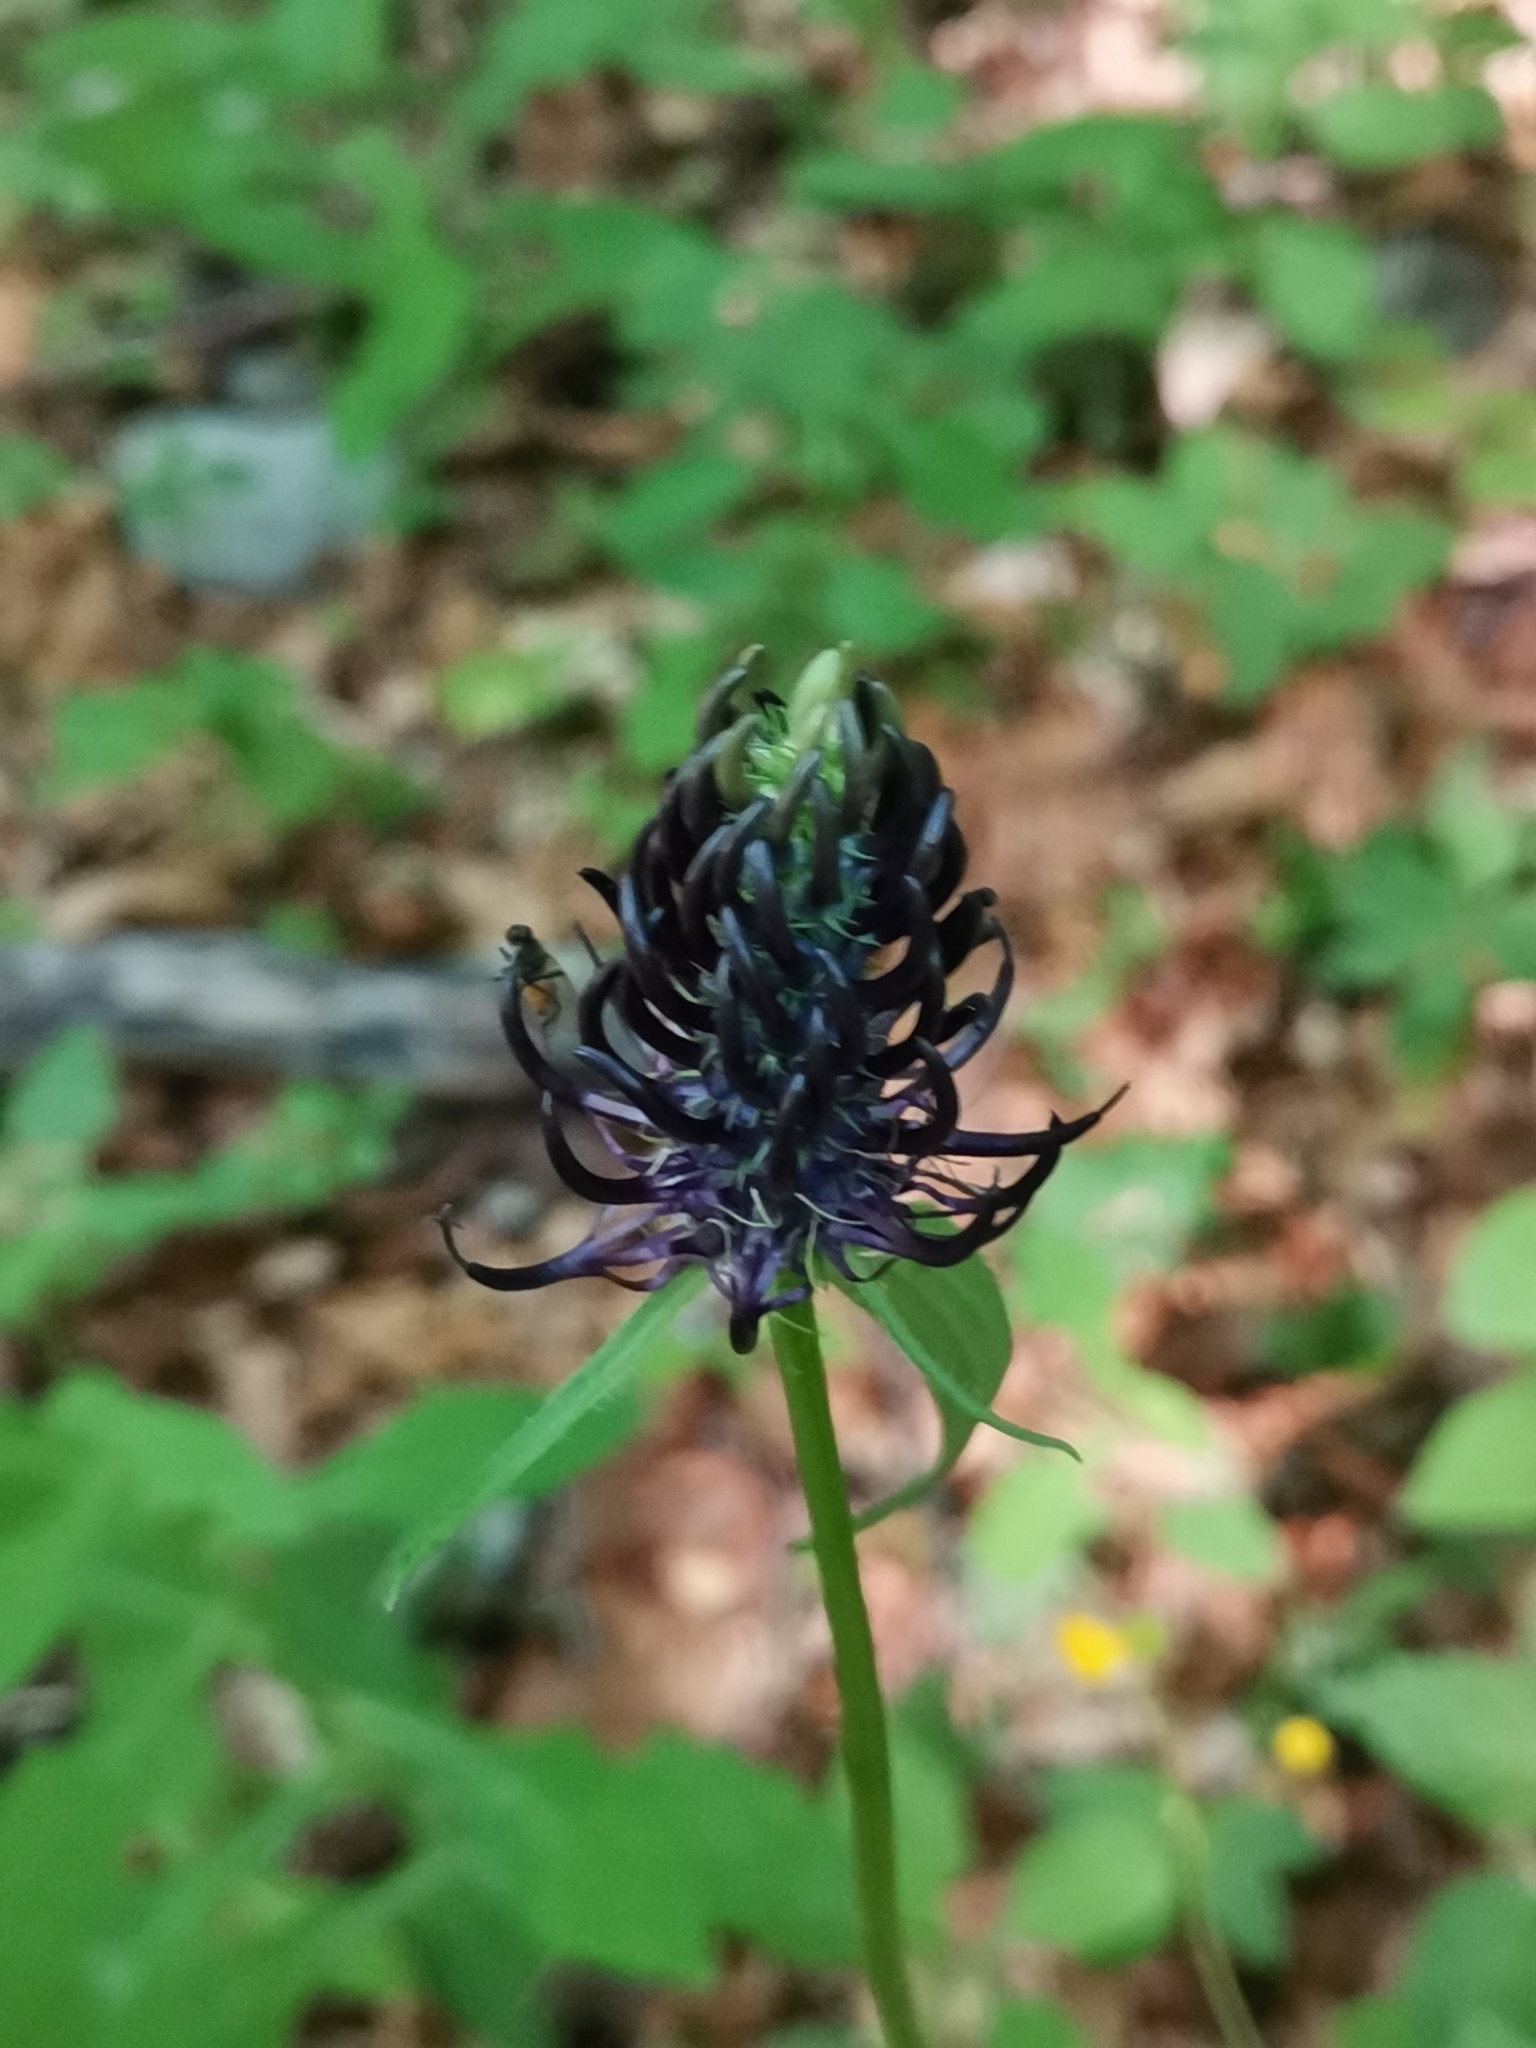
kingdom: Plantae
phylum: Tracheophyta
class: Magnoliopsida
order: Asterales
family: Campanulaceae
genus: Phyteuma
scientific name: Phyteuma ovatum
